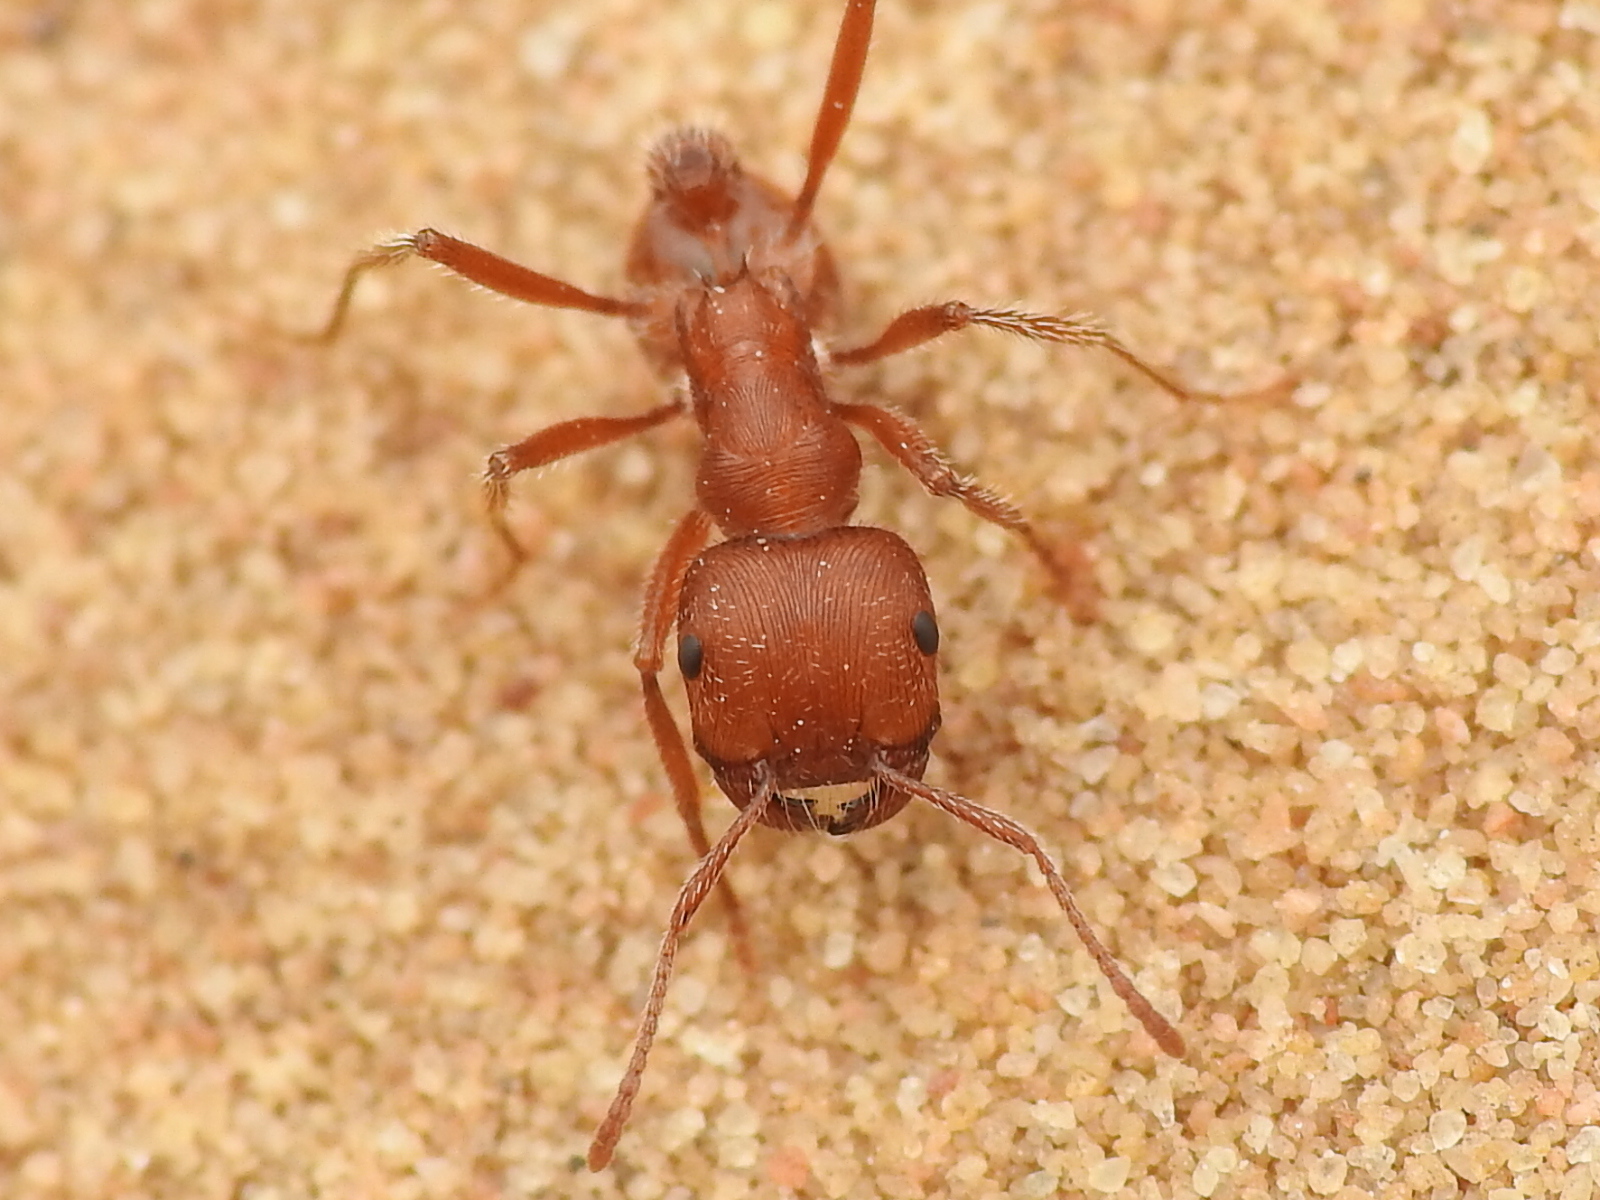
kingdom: Animalia
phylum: Arthropoda
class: Insecta
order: Hymenoptera
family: Formicidae
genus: Pogonomyrmex
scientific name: Pogonomyrmex comanche
